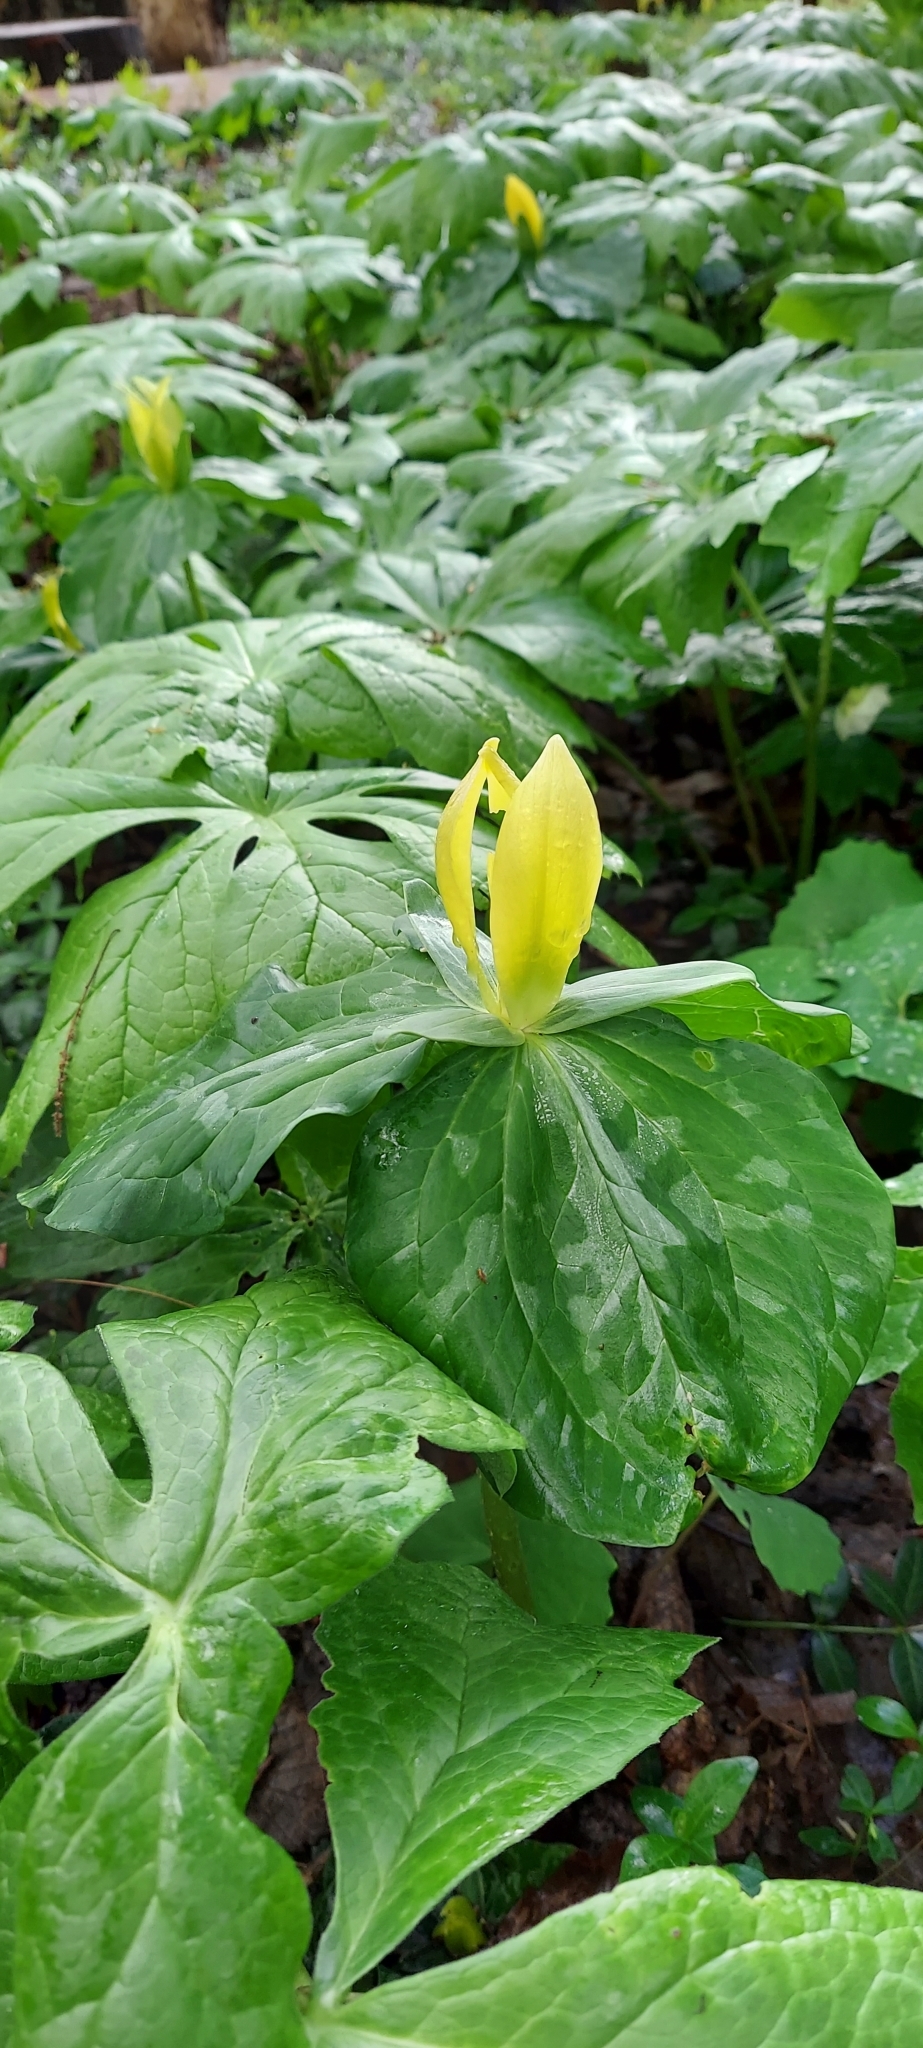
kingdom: Plantae
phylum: Tracheophyta
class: Liliopsida
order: Liliales
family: Melanthiaceae
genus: Trillium
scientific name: Trillium luteum
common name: Wax trillium
